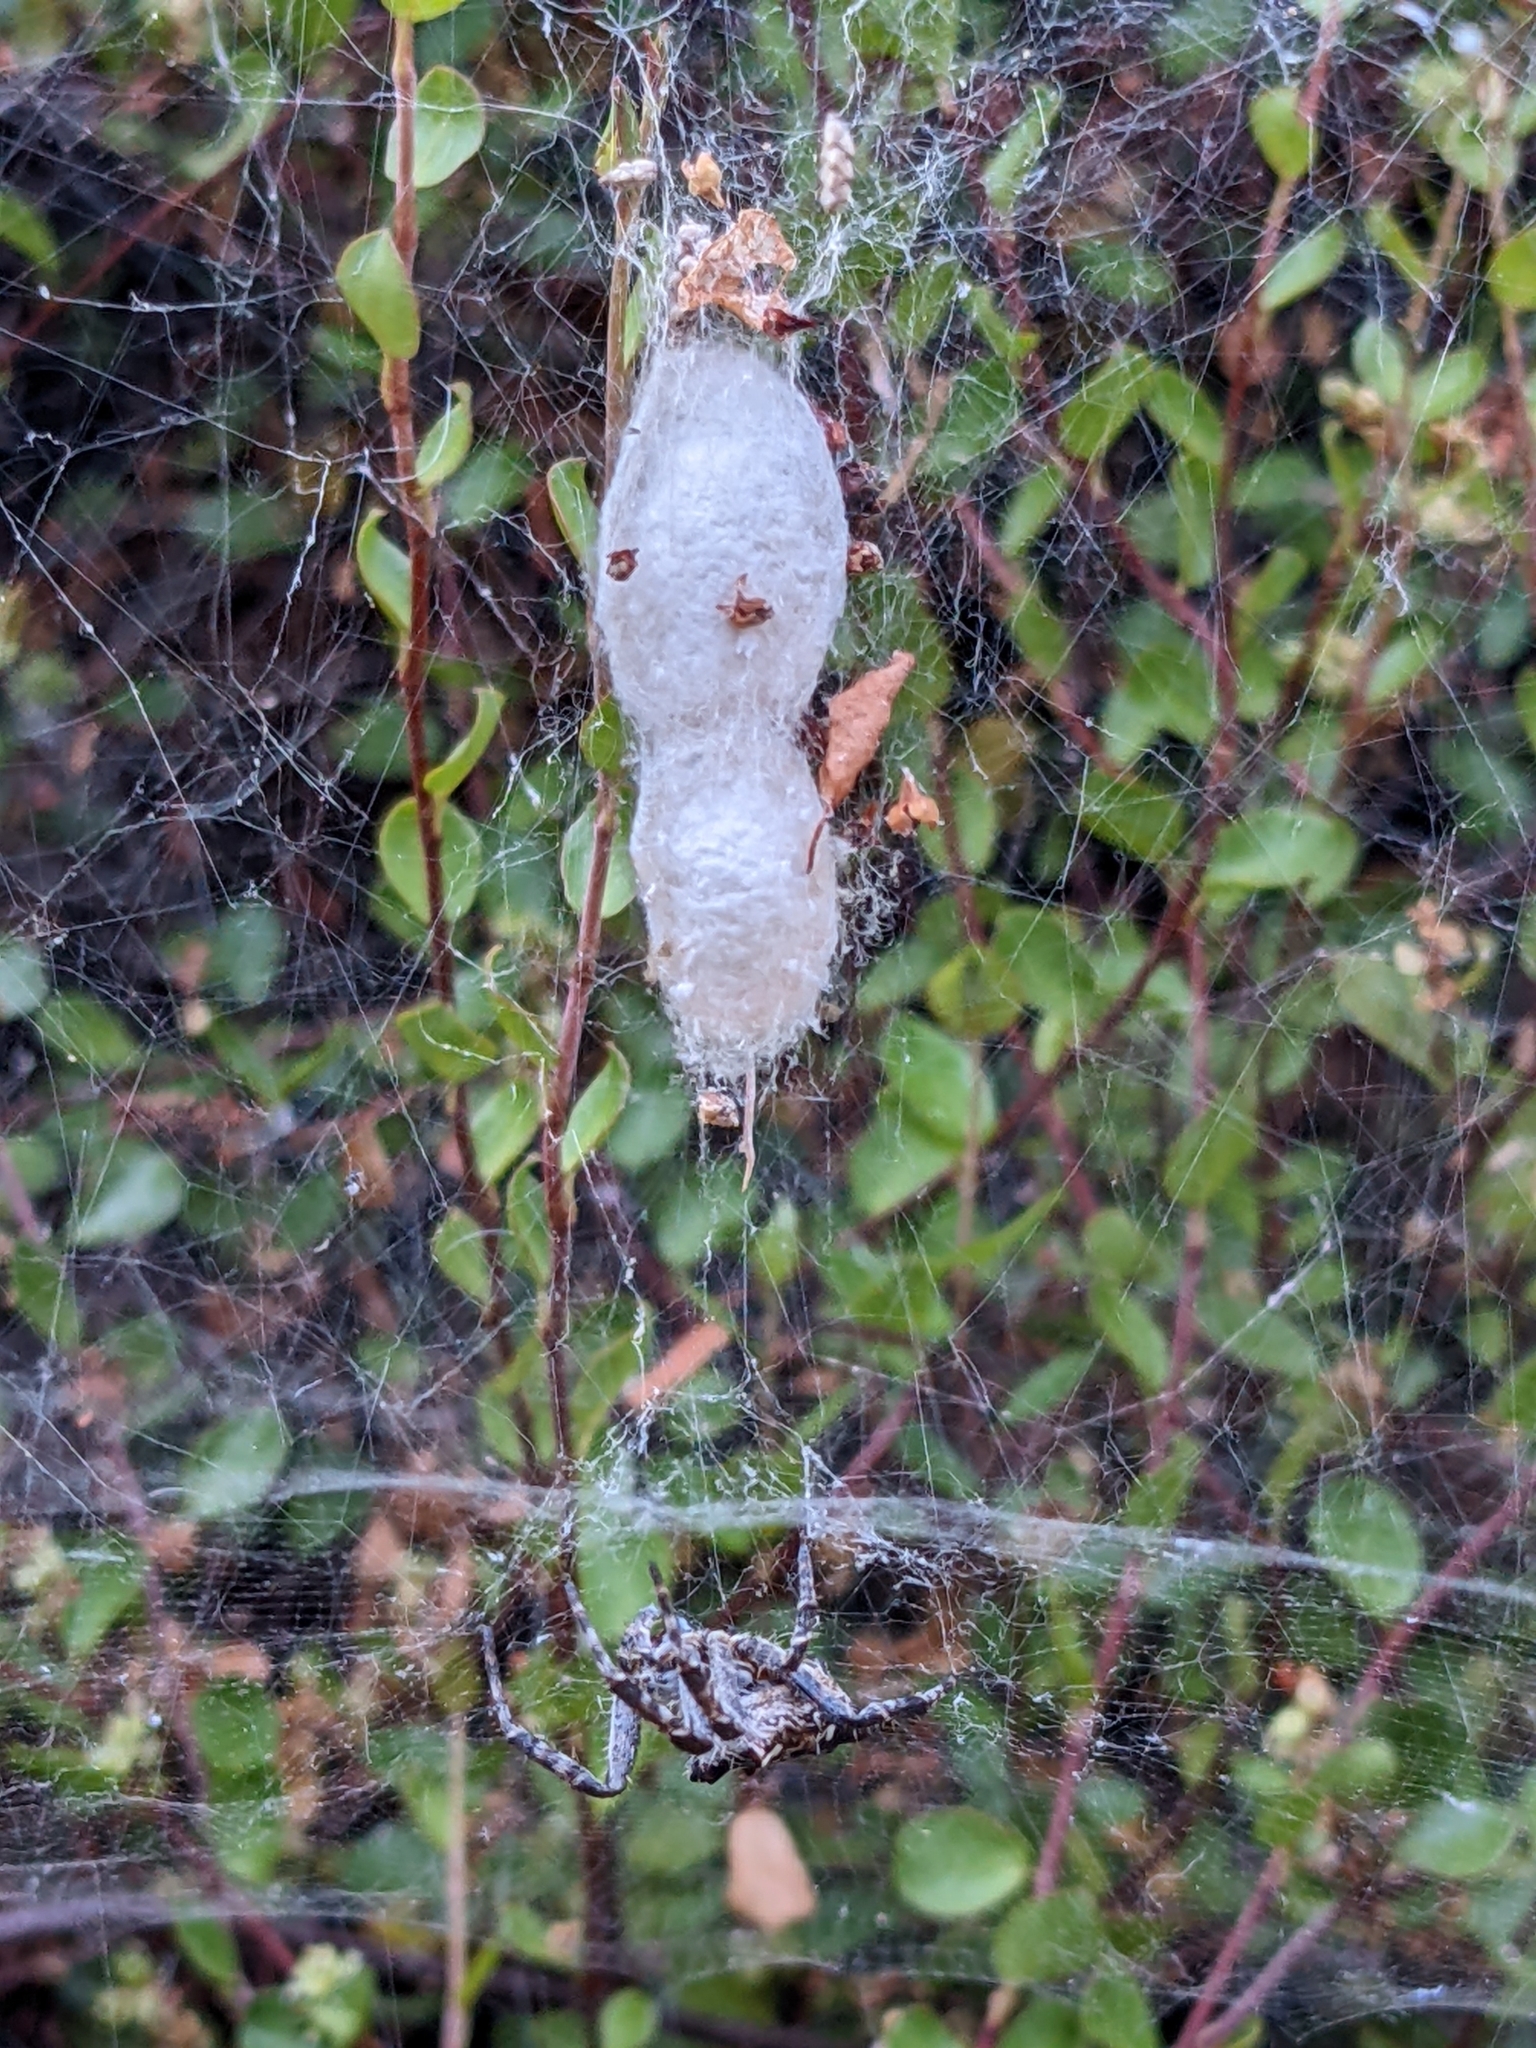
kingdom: Animalia
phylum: Arthropoda
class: Arachnida
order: Araneae
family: Araneidae
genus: Cyrtophora
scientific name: Cyrtophora citricola
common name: Orb weavers
